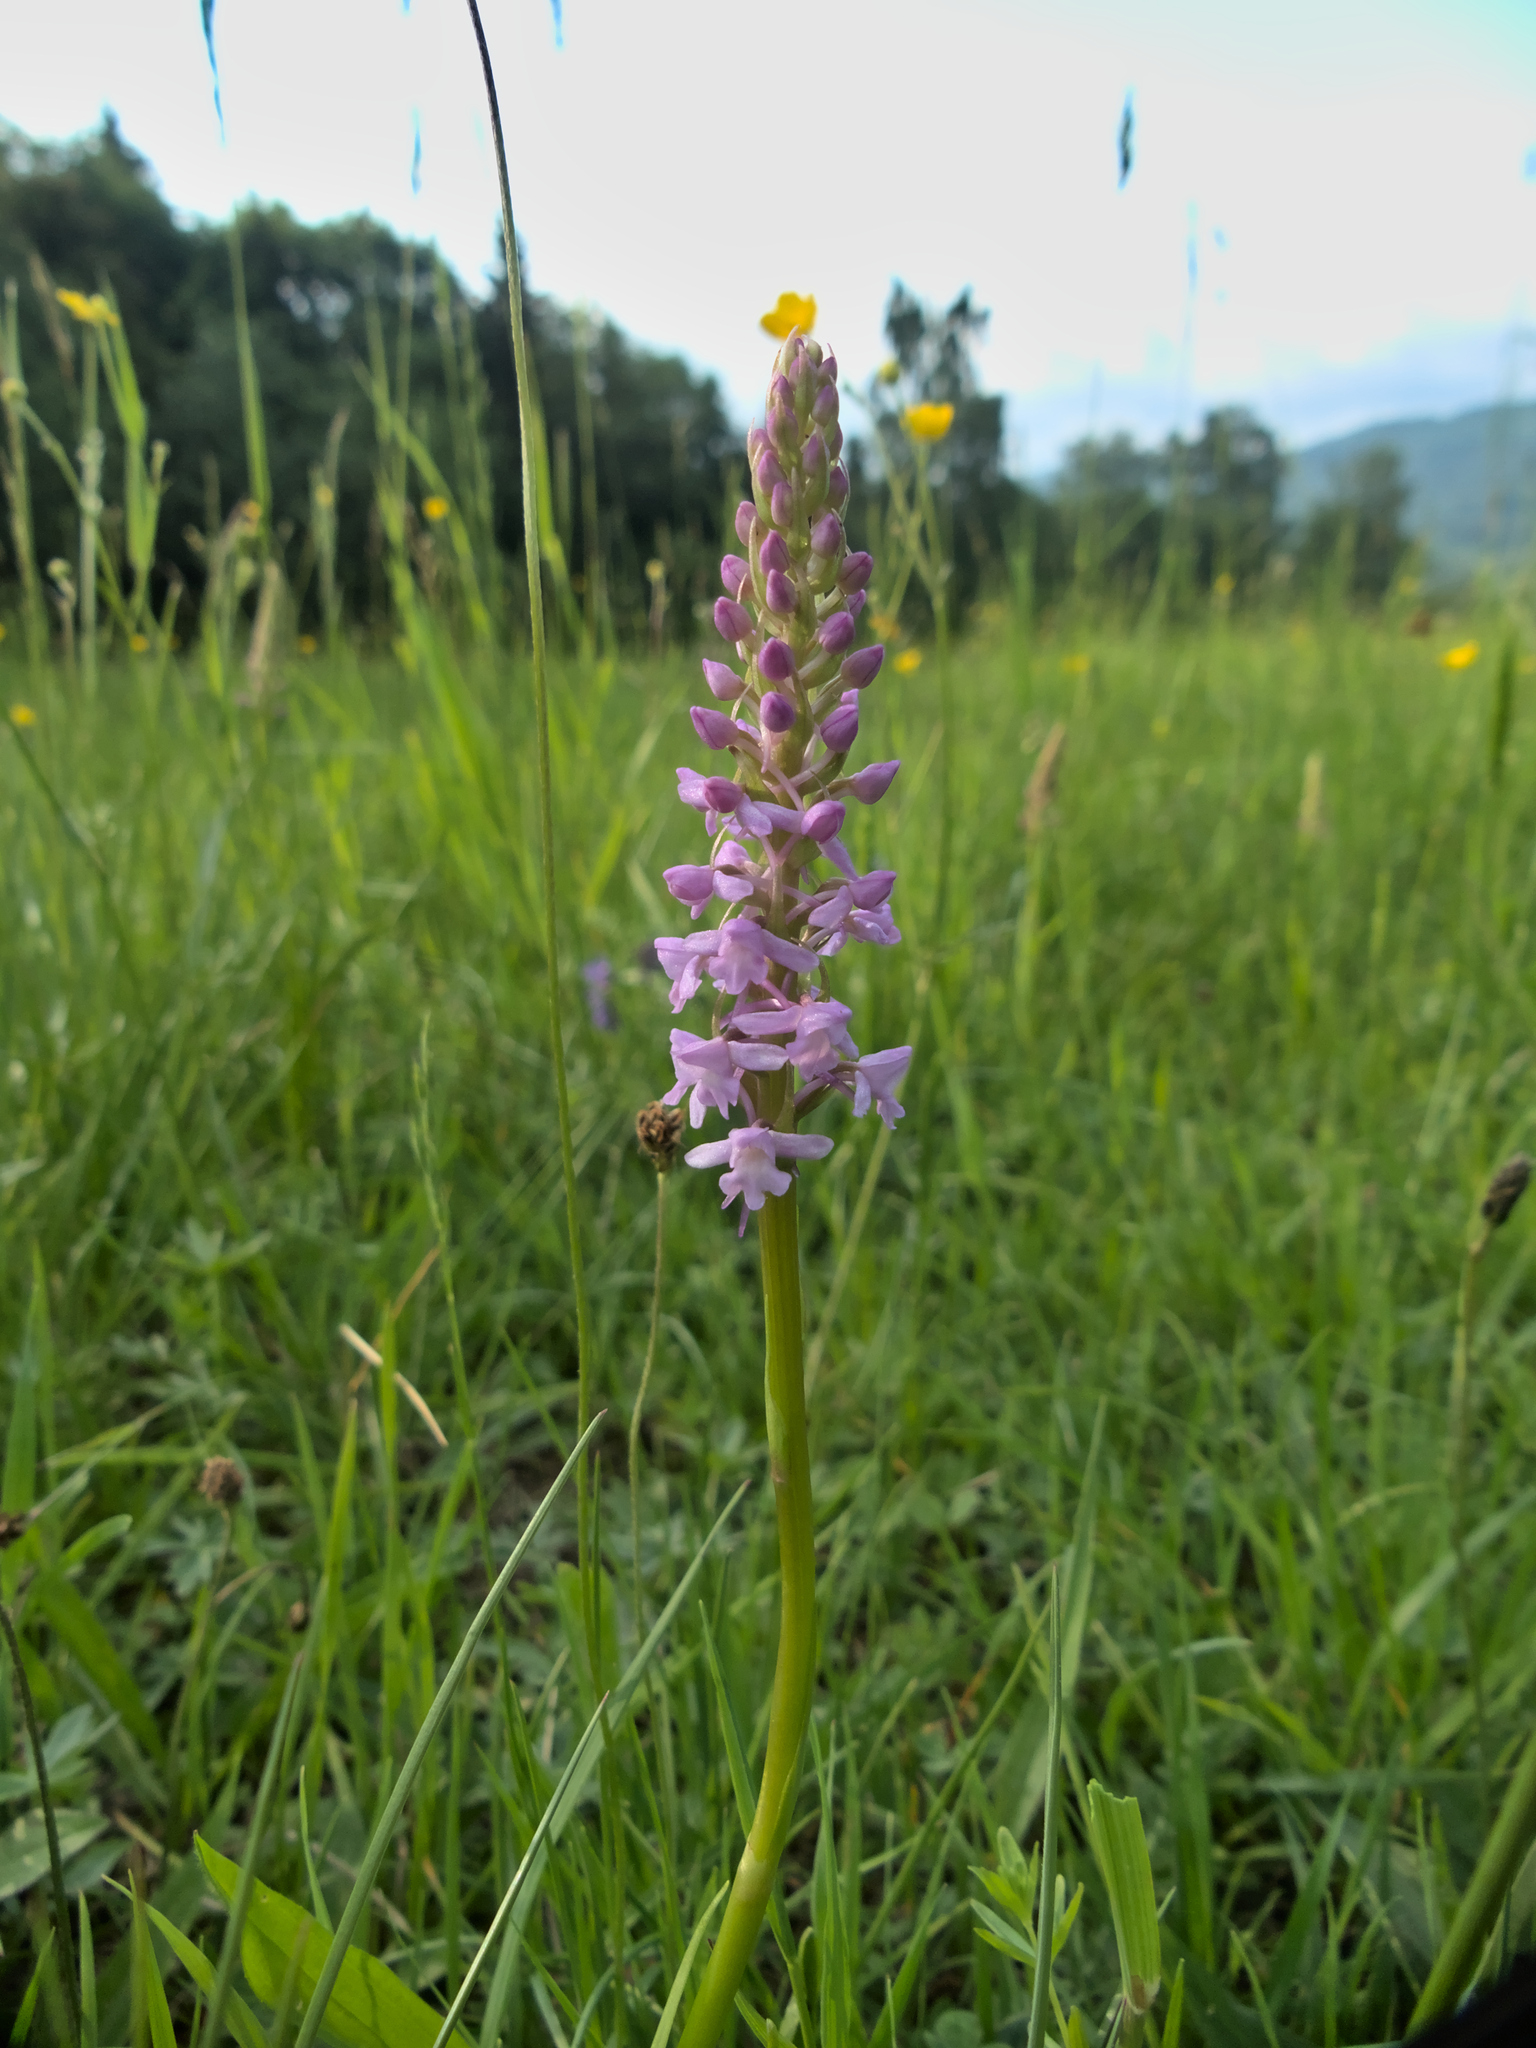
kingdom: Plantae
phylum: Tracheophyta
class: Liliopsida
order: Asparagales
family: Orchidaceae
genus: Gymnadenia
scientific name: Gymnadenia conopsea
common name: Fragrant orchid
